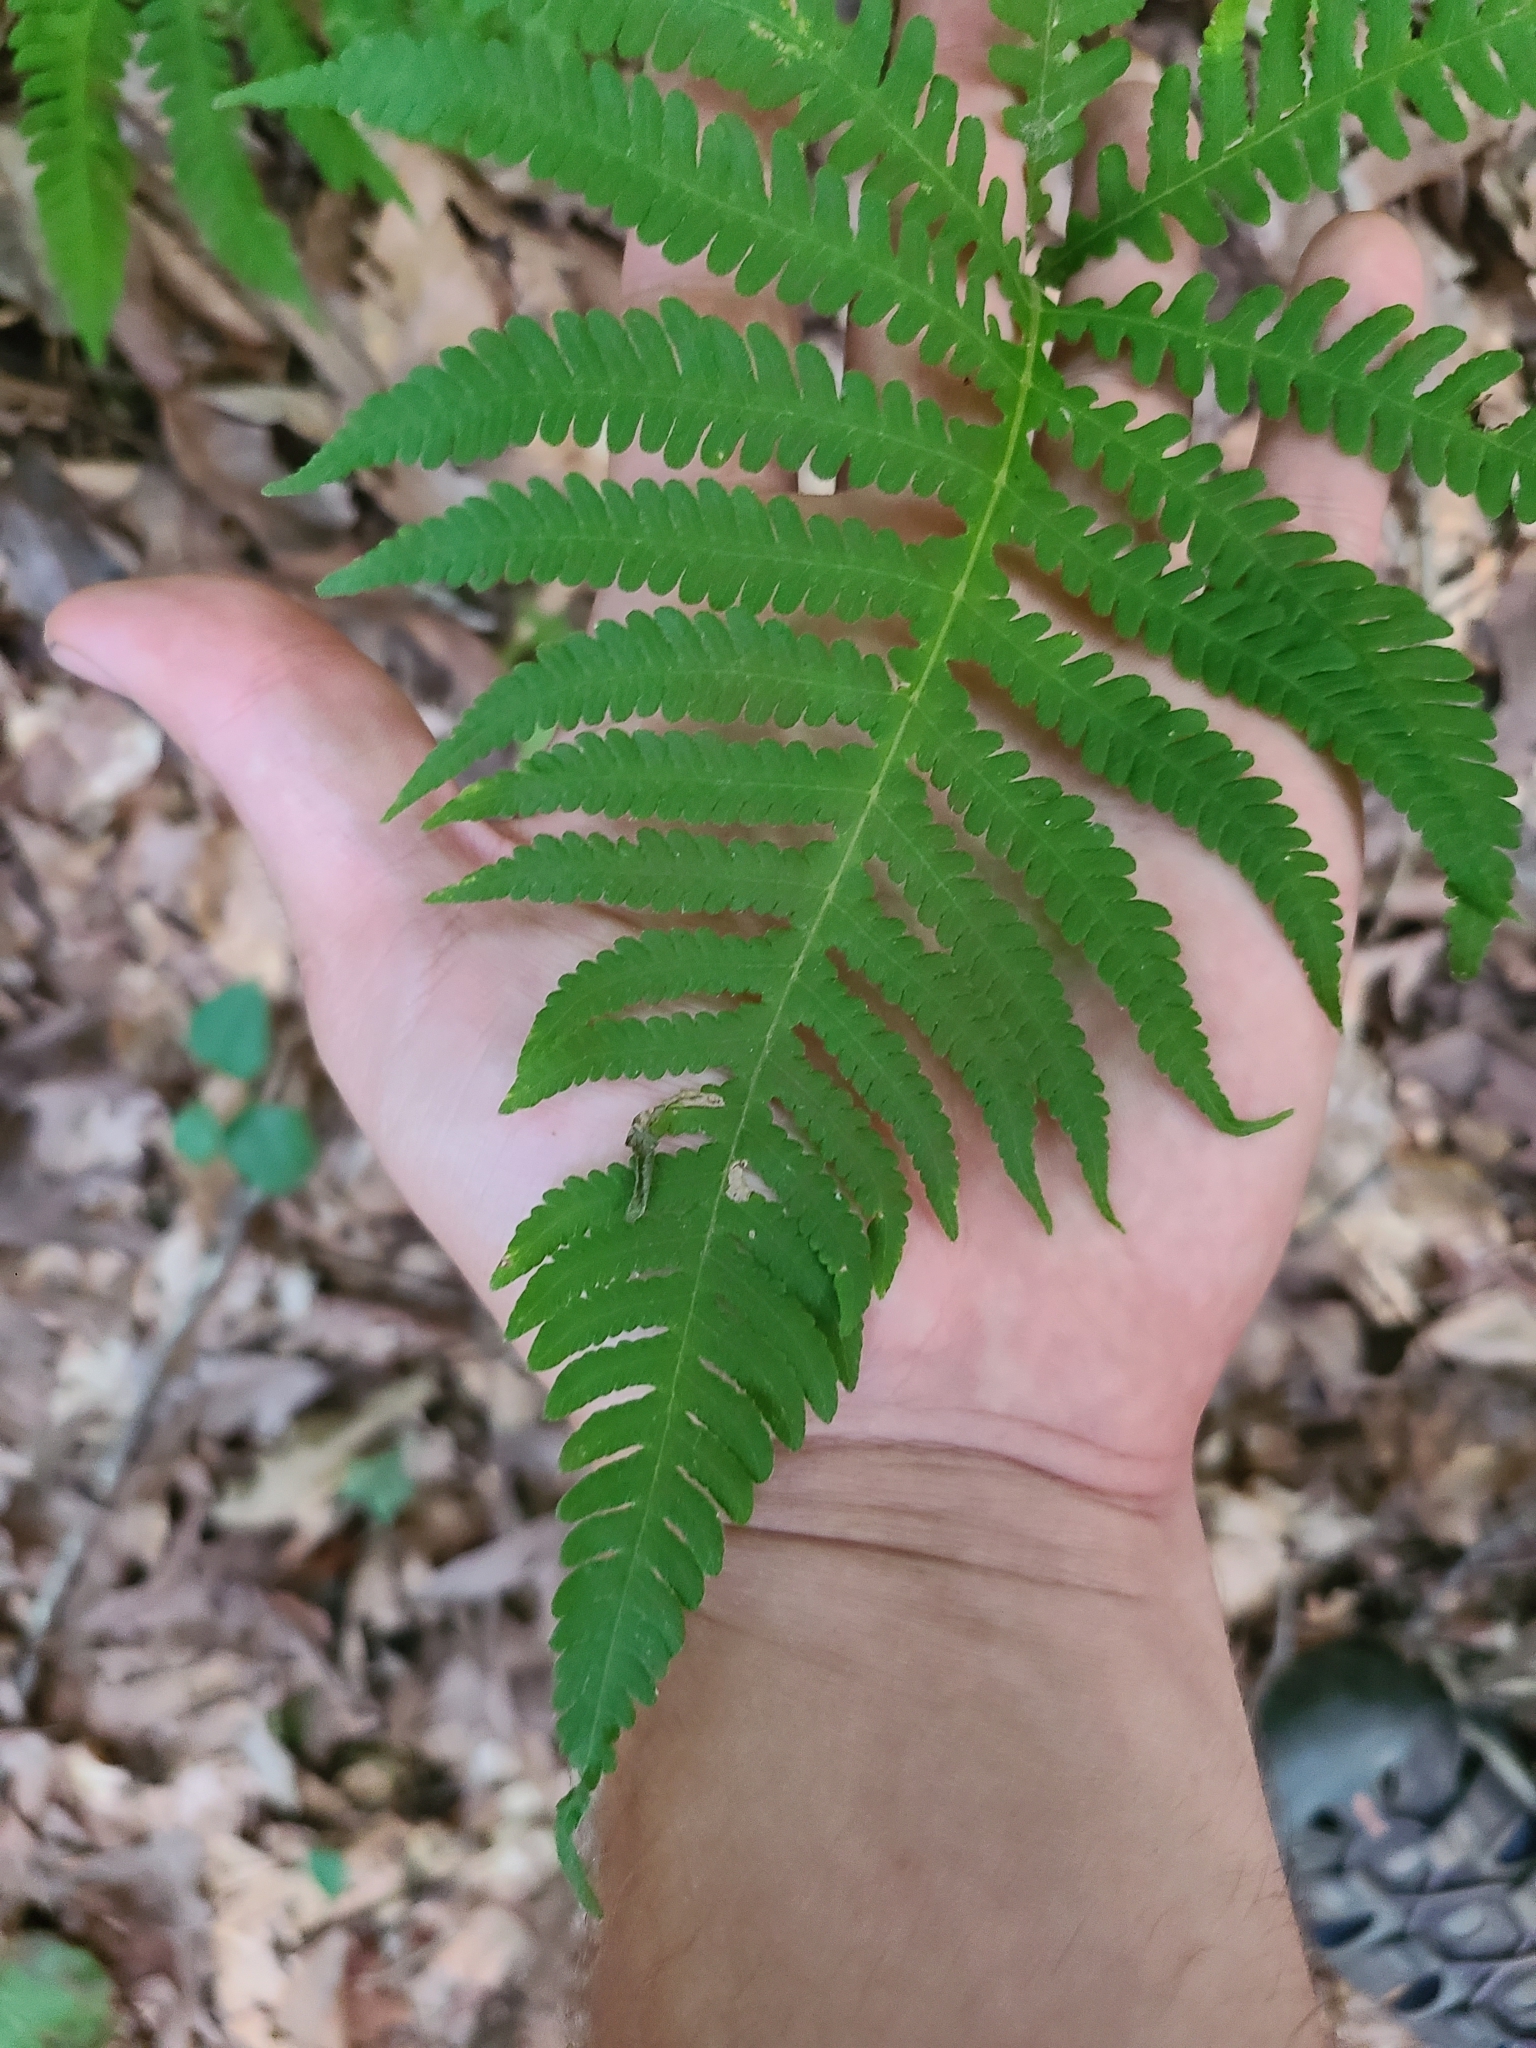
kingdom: Plantae
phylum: Tracheophyta
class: Polypodiopsida
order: Polypodiales
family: Thelypteridaceae
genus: Phegopteris
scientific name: Phegopteris hexagonoptera
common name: Broad beech fern
